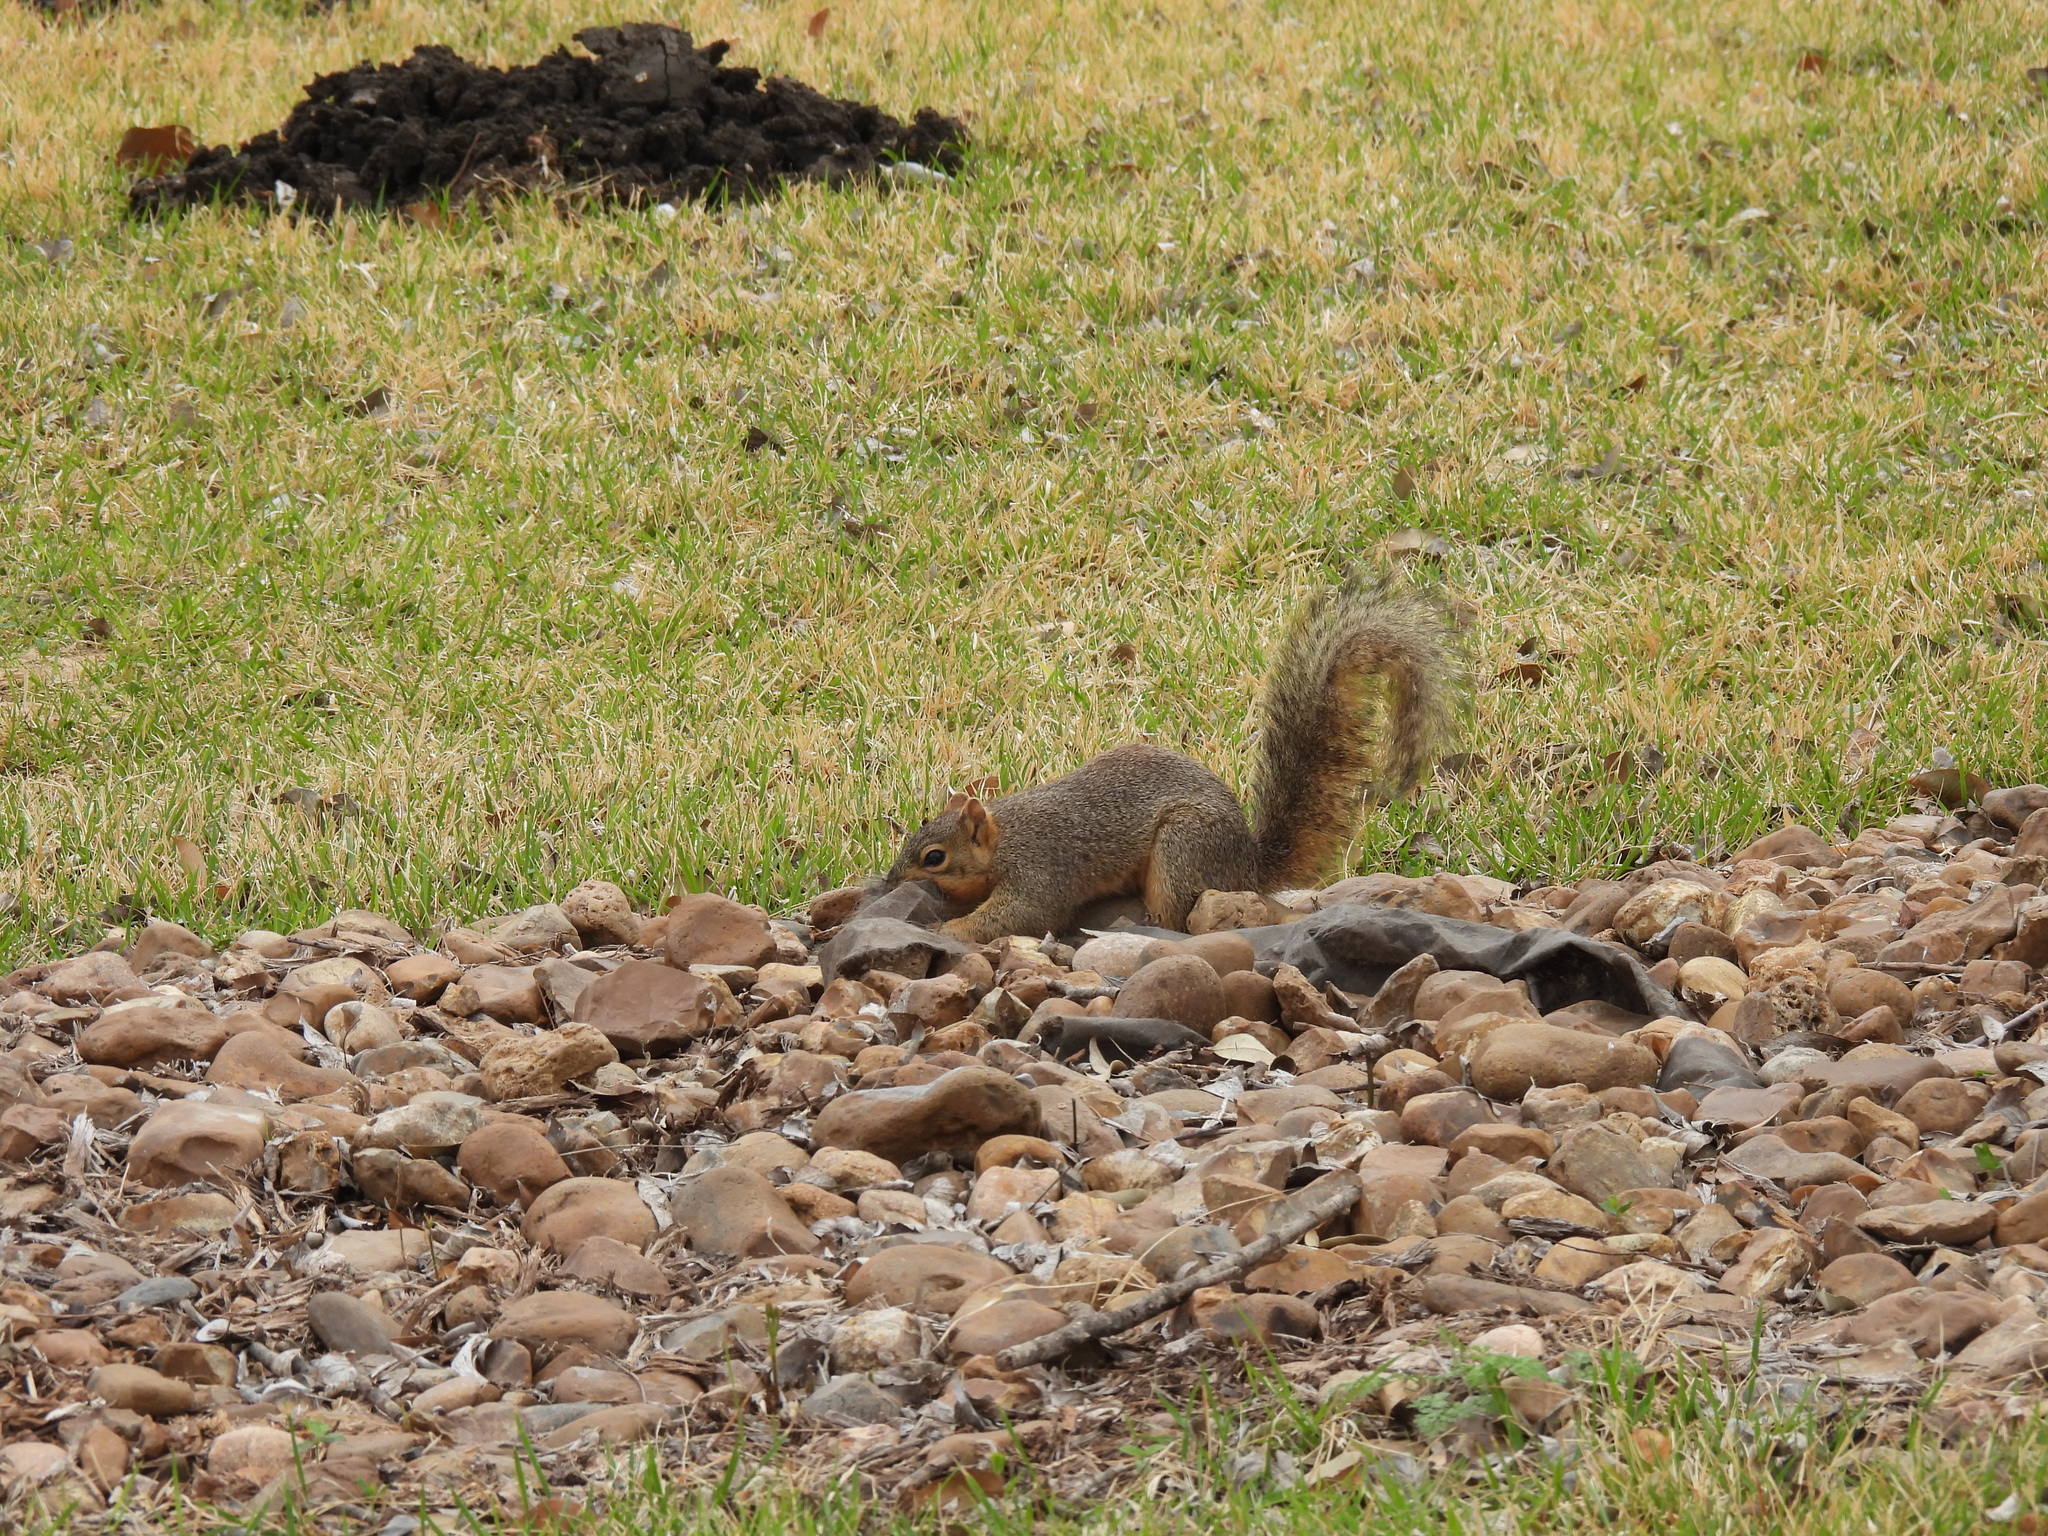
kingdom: Animalia
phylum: Chordata
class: Mammalia
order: Rodentia
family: Sciuridae
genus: Sciurus
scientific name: Sciurus niger
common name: Fox squirrel
